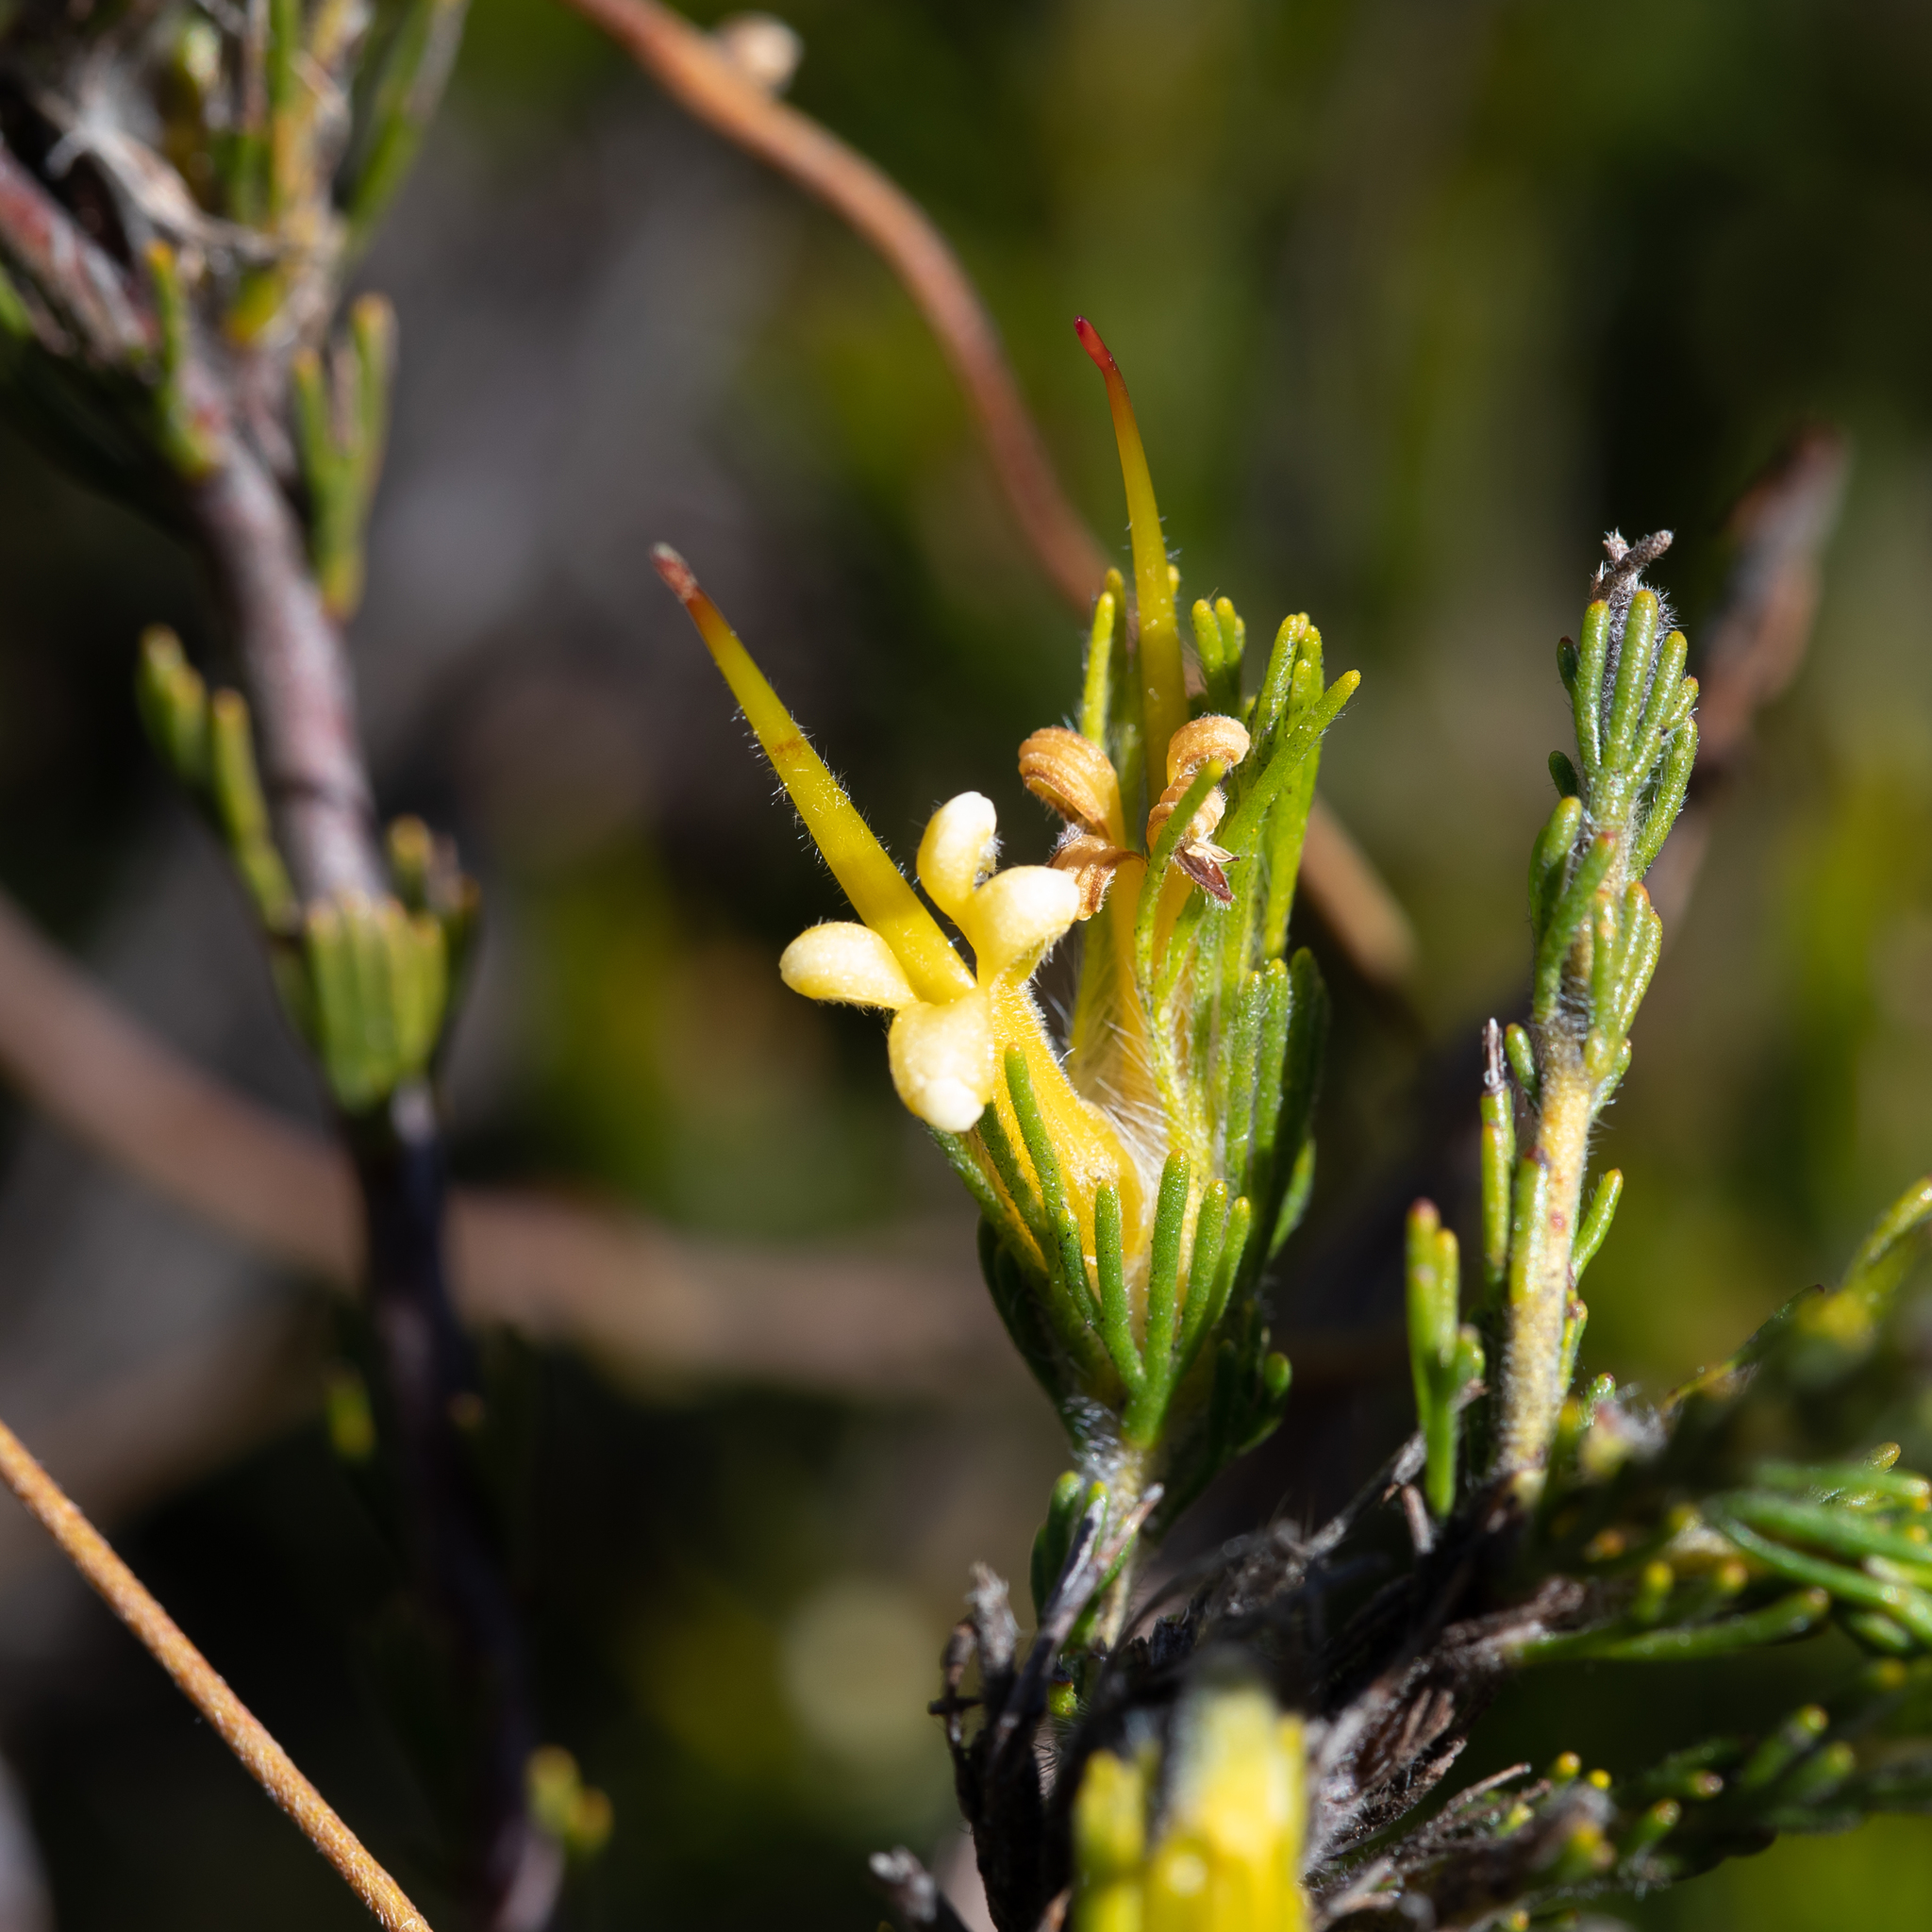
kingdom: Plantae
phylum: Tracheophyta
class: Magnoliopsida
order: Proteales
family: Proteaceae
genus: Adenanthos
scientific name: Adenanthos terminalis
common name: Yellow gland-flower
